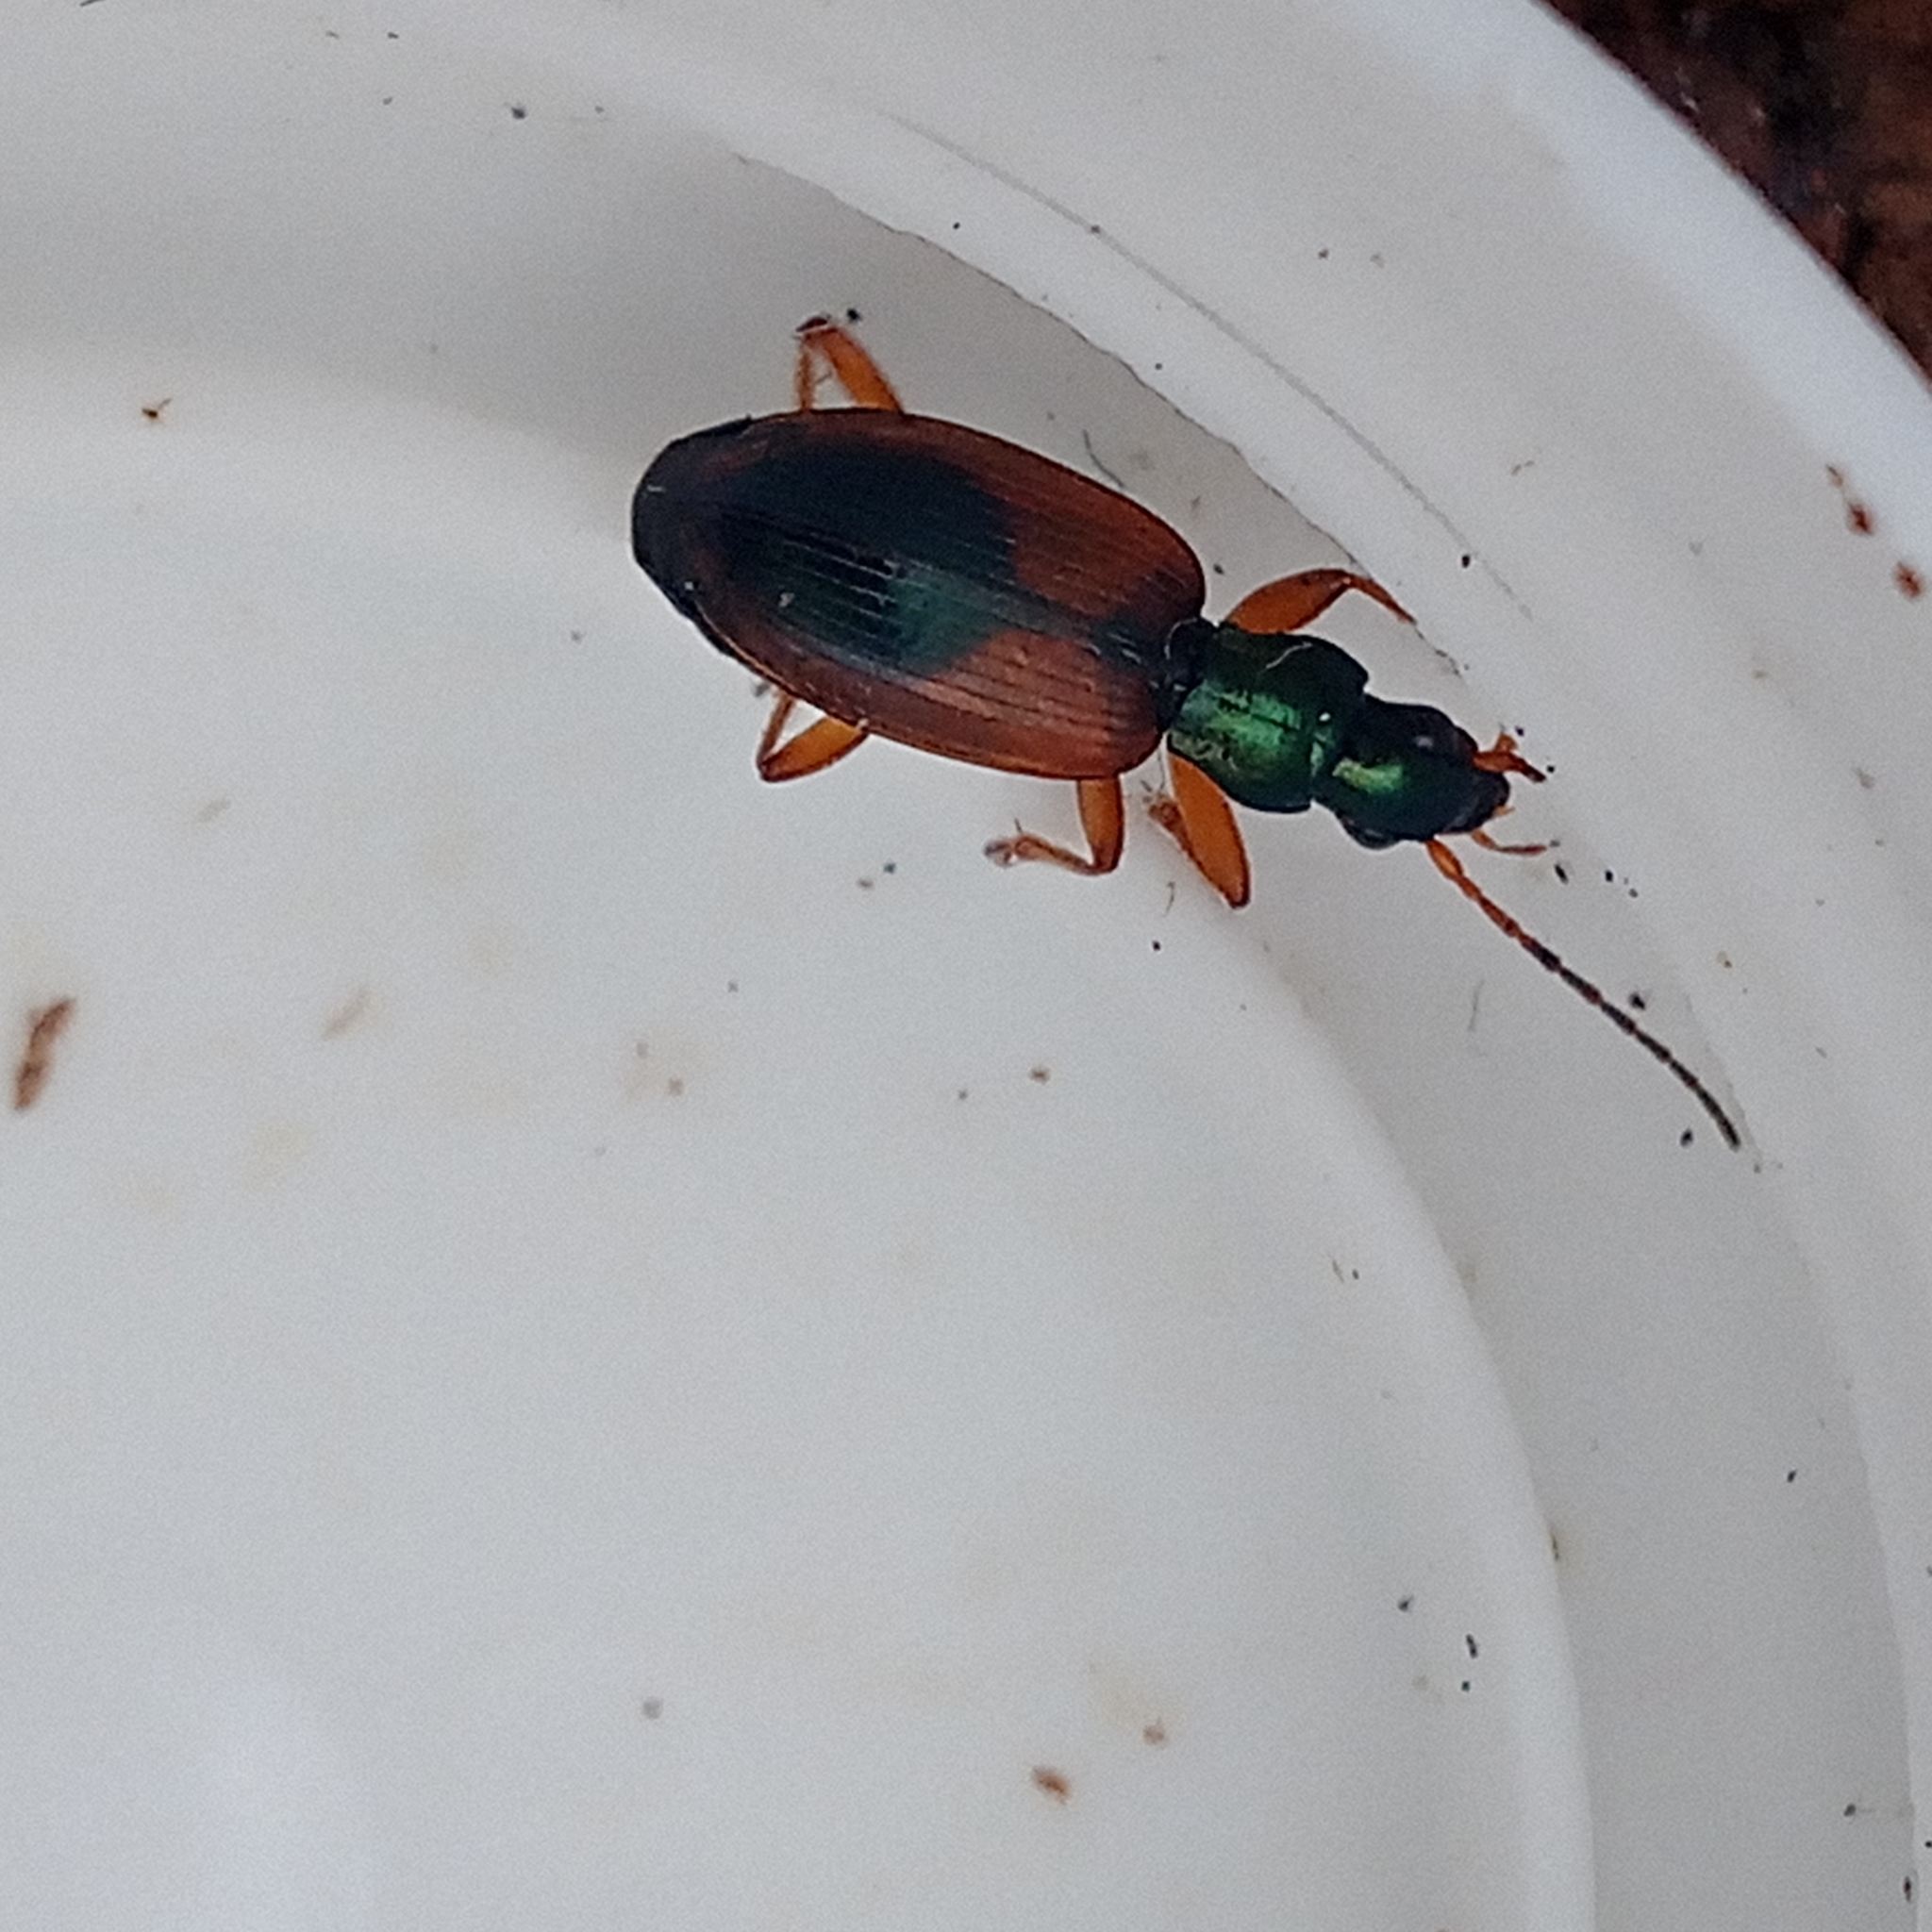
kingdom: Animalia
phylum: Arthropoda
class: Insecta
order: Coleoptera
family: Carabidae
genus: Anchomenus
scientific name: Anchomenus dorsalis
